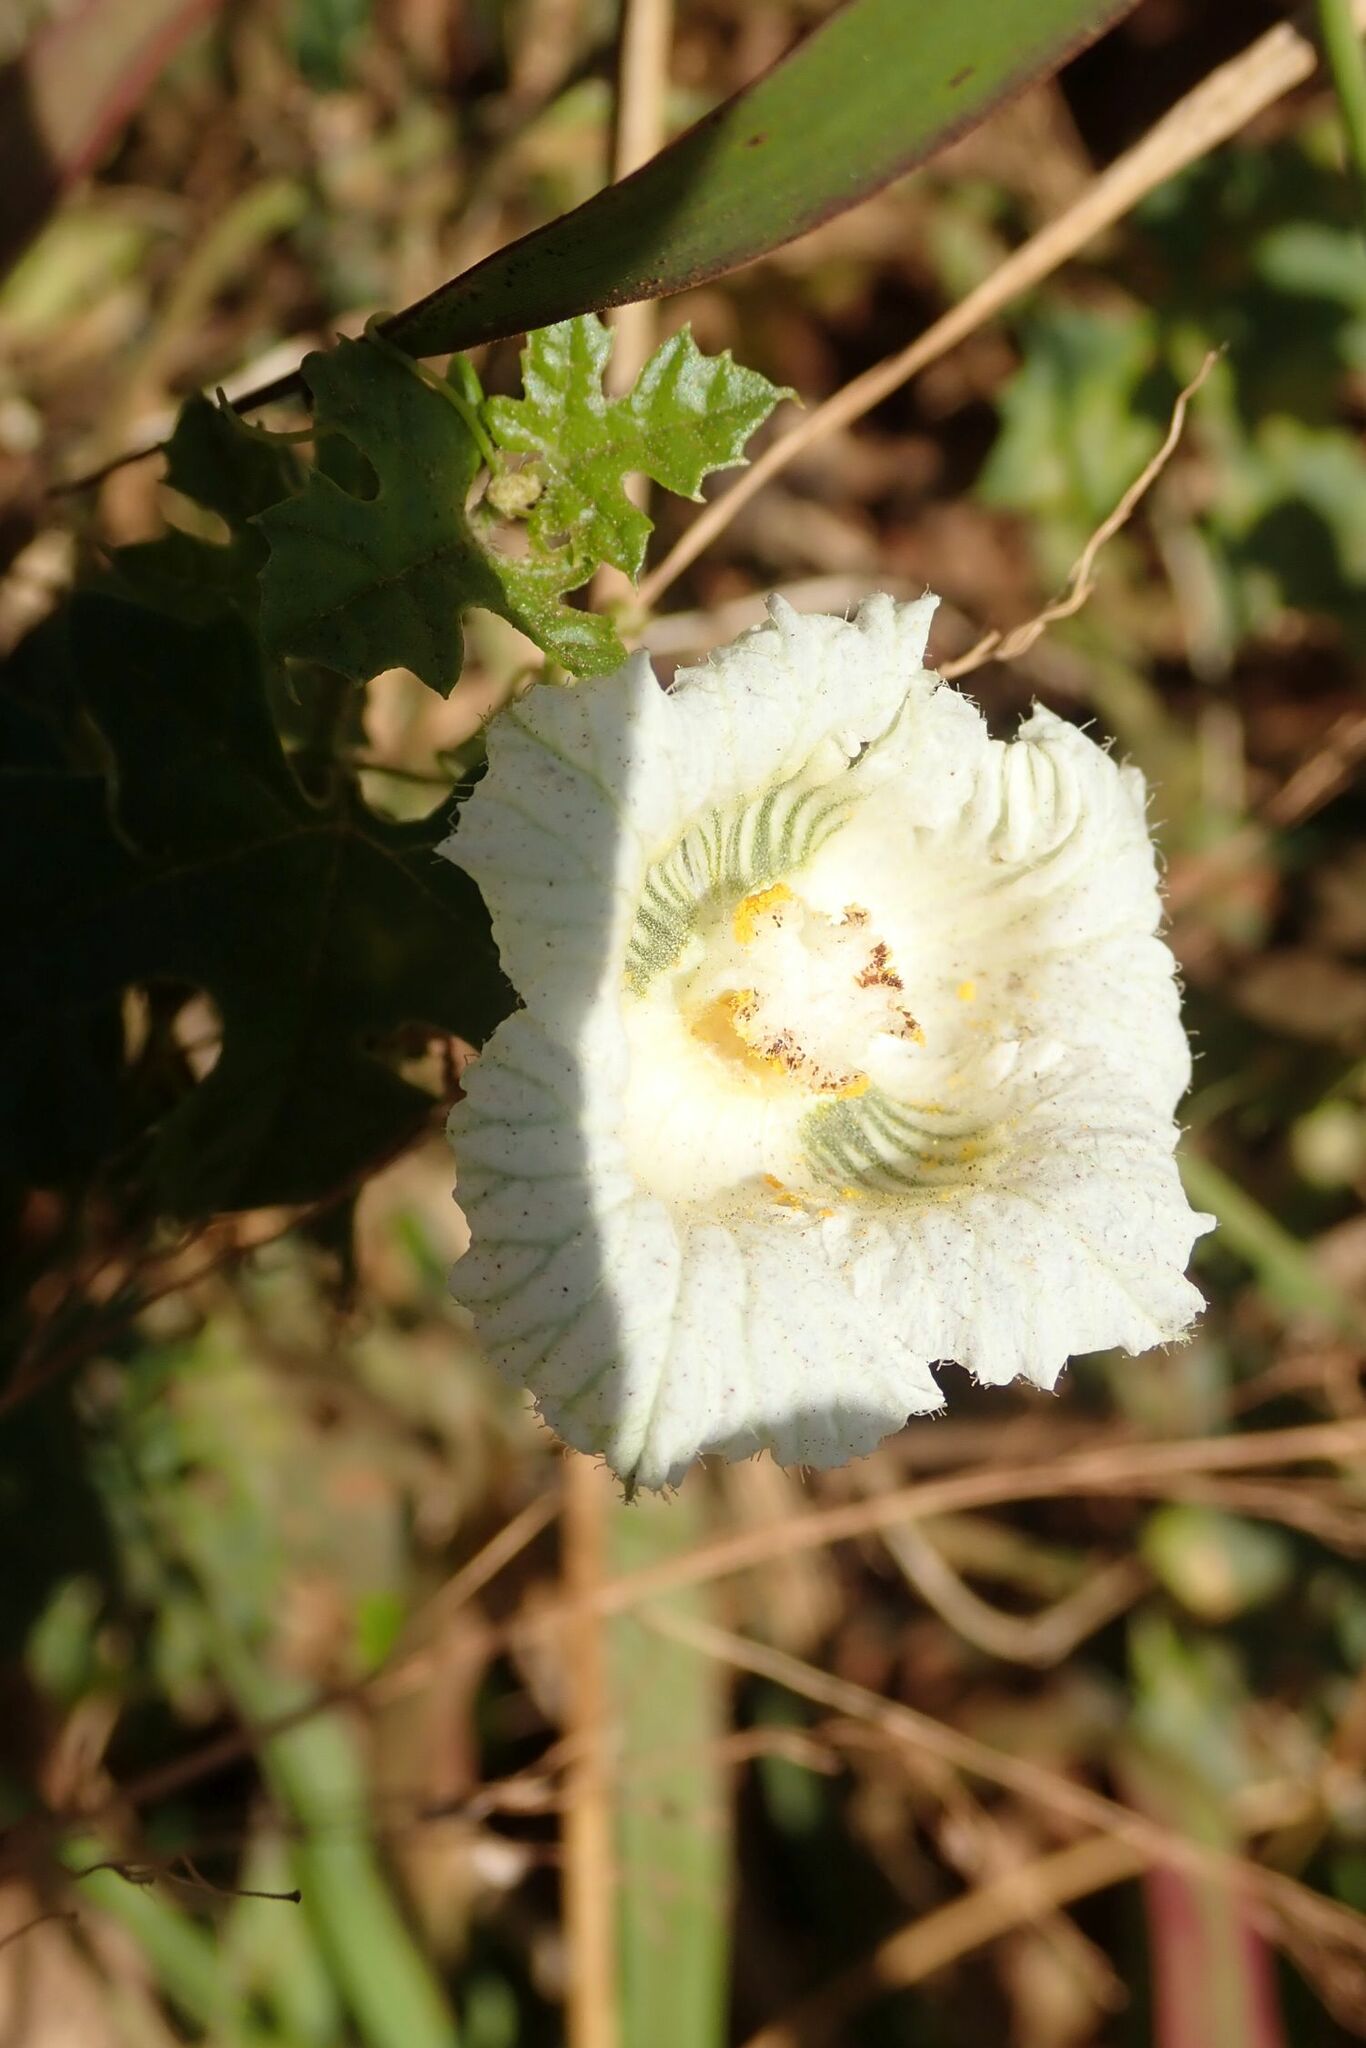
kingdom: Plantae
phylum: Tracheophyta
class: Magnoliopsida
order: Cucurbitales
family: Cucurbitaceae
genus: Momordica
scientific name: Momordica balsamina
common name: Southern balsampear
